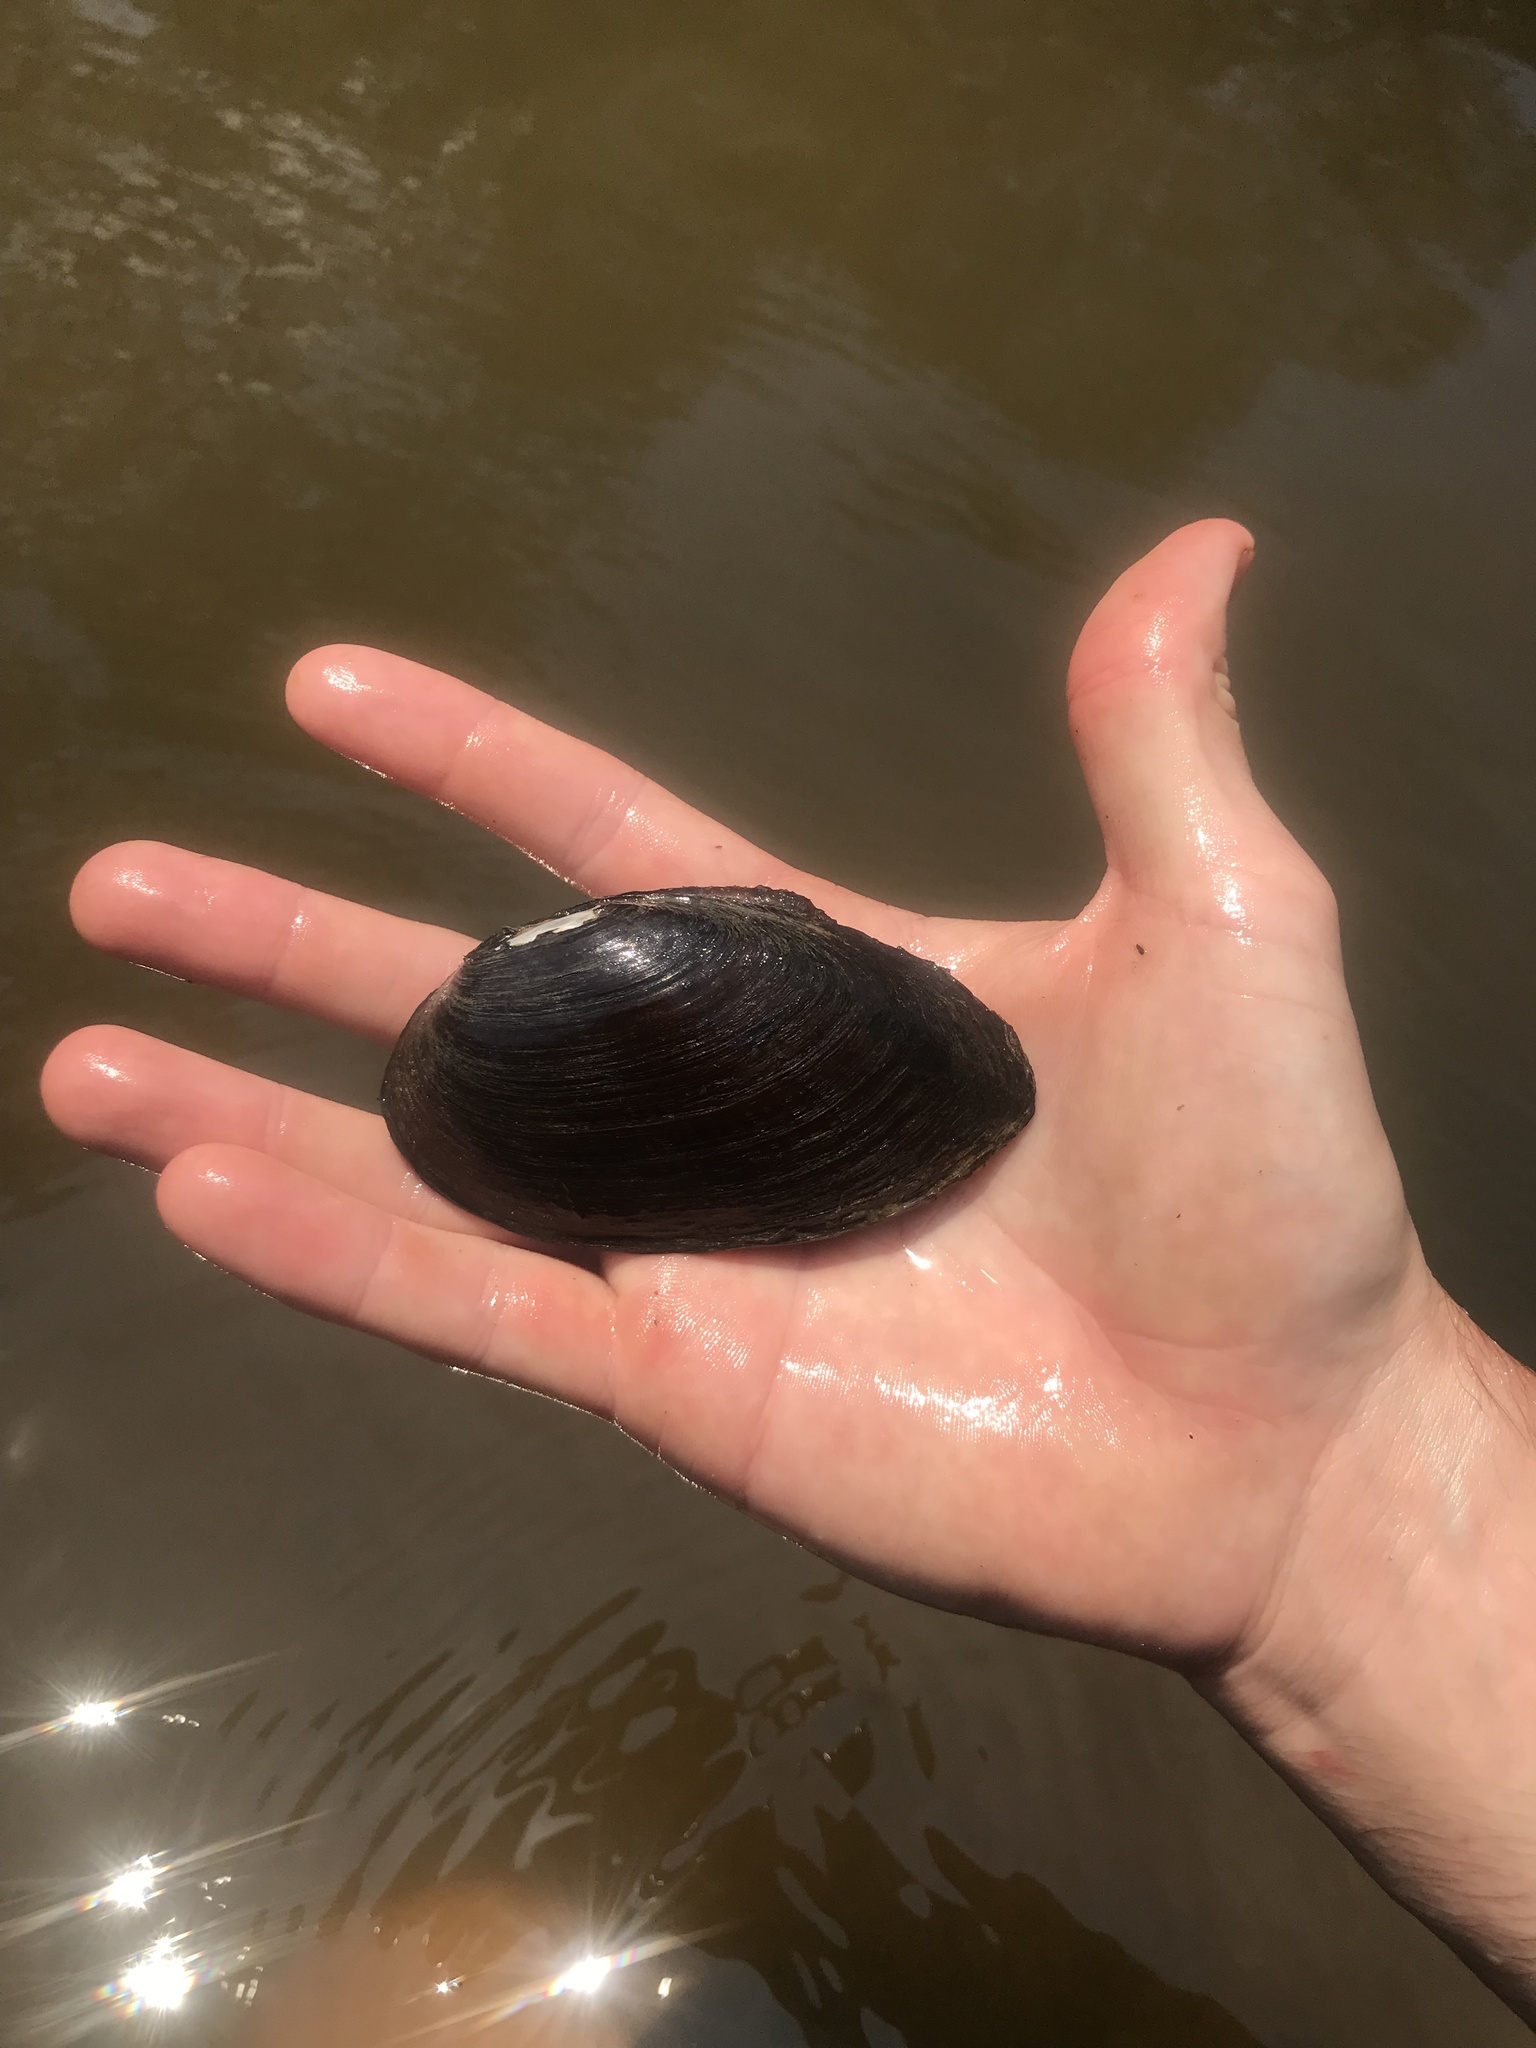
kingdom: Animalia
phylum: Mollusca
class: Bivalvia
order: Unionida
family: Unionidae
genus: Elliptio
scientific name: Elliptio arca
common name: Alabama spike
